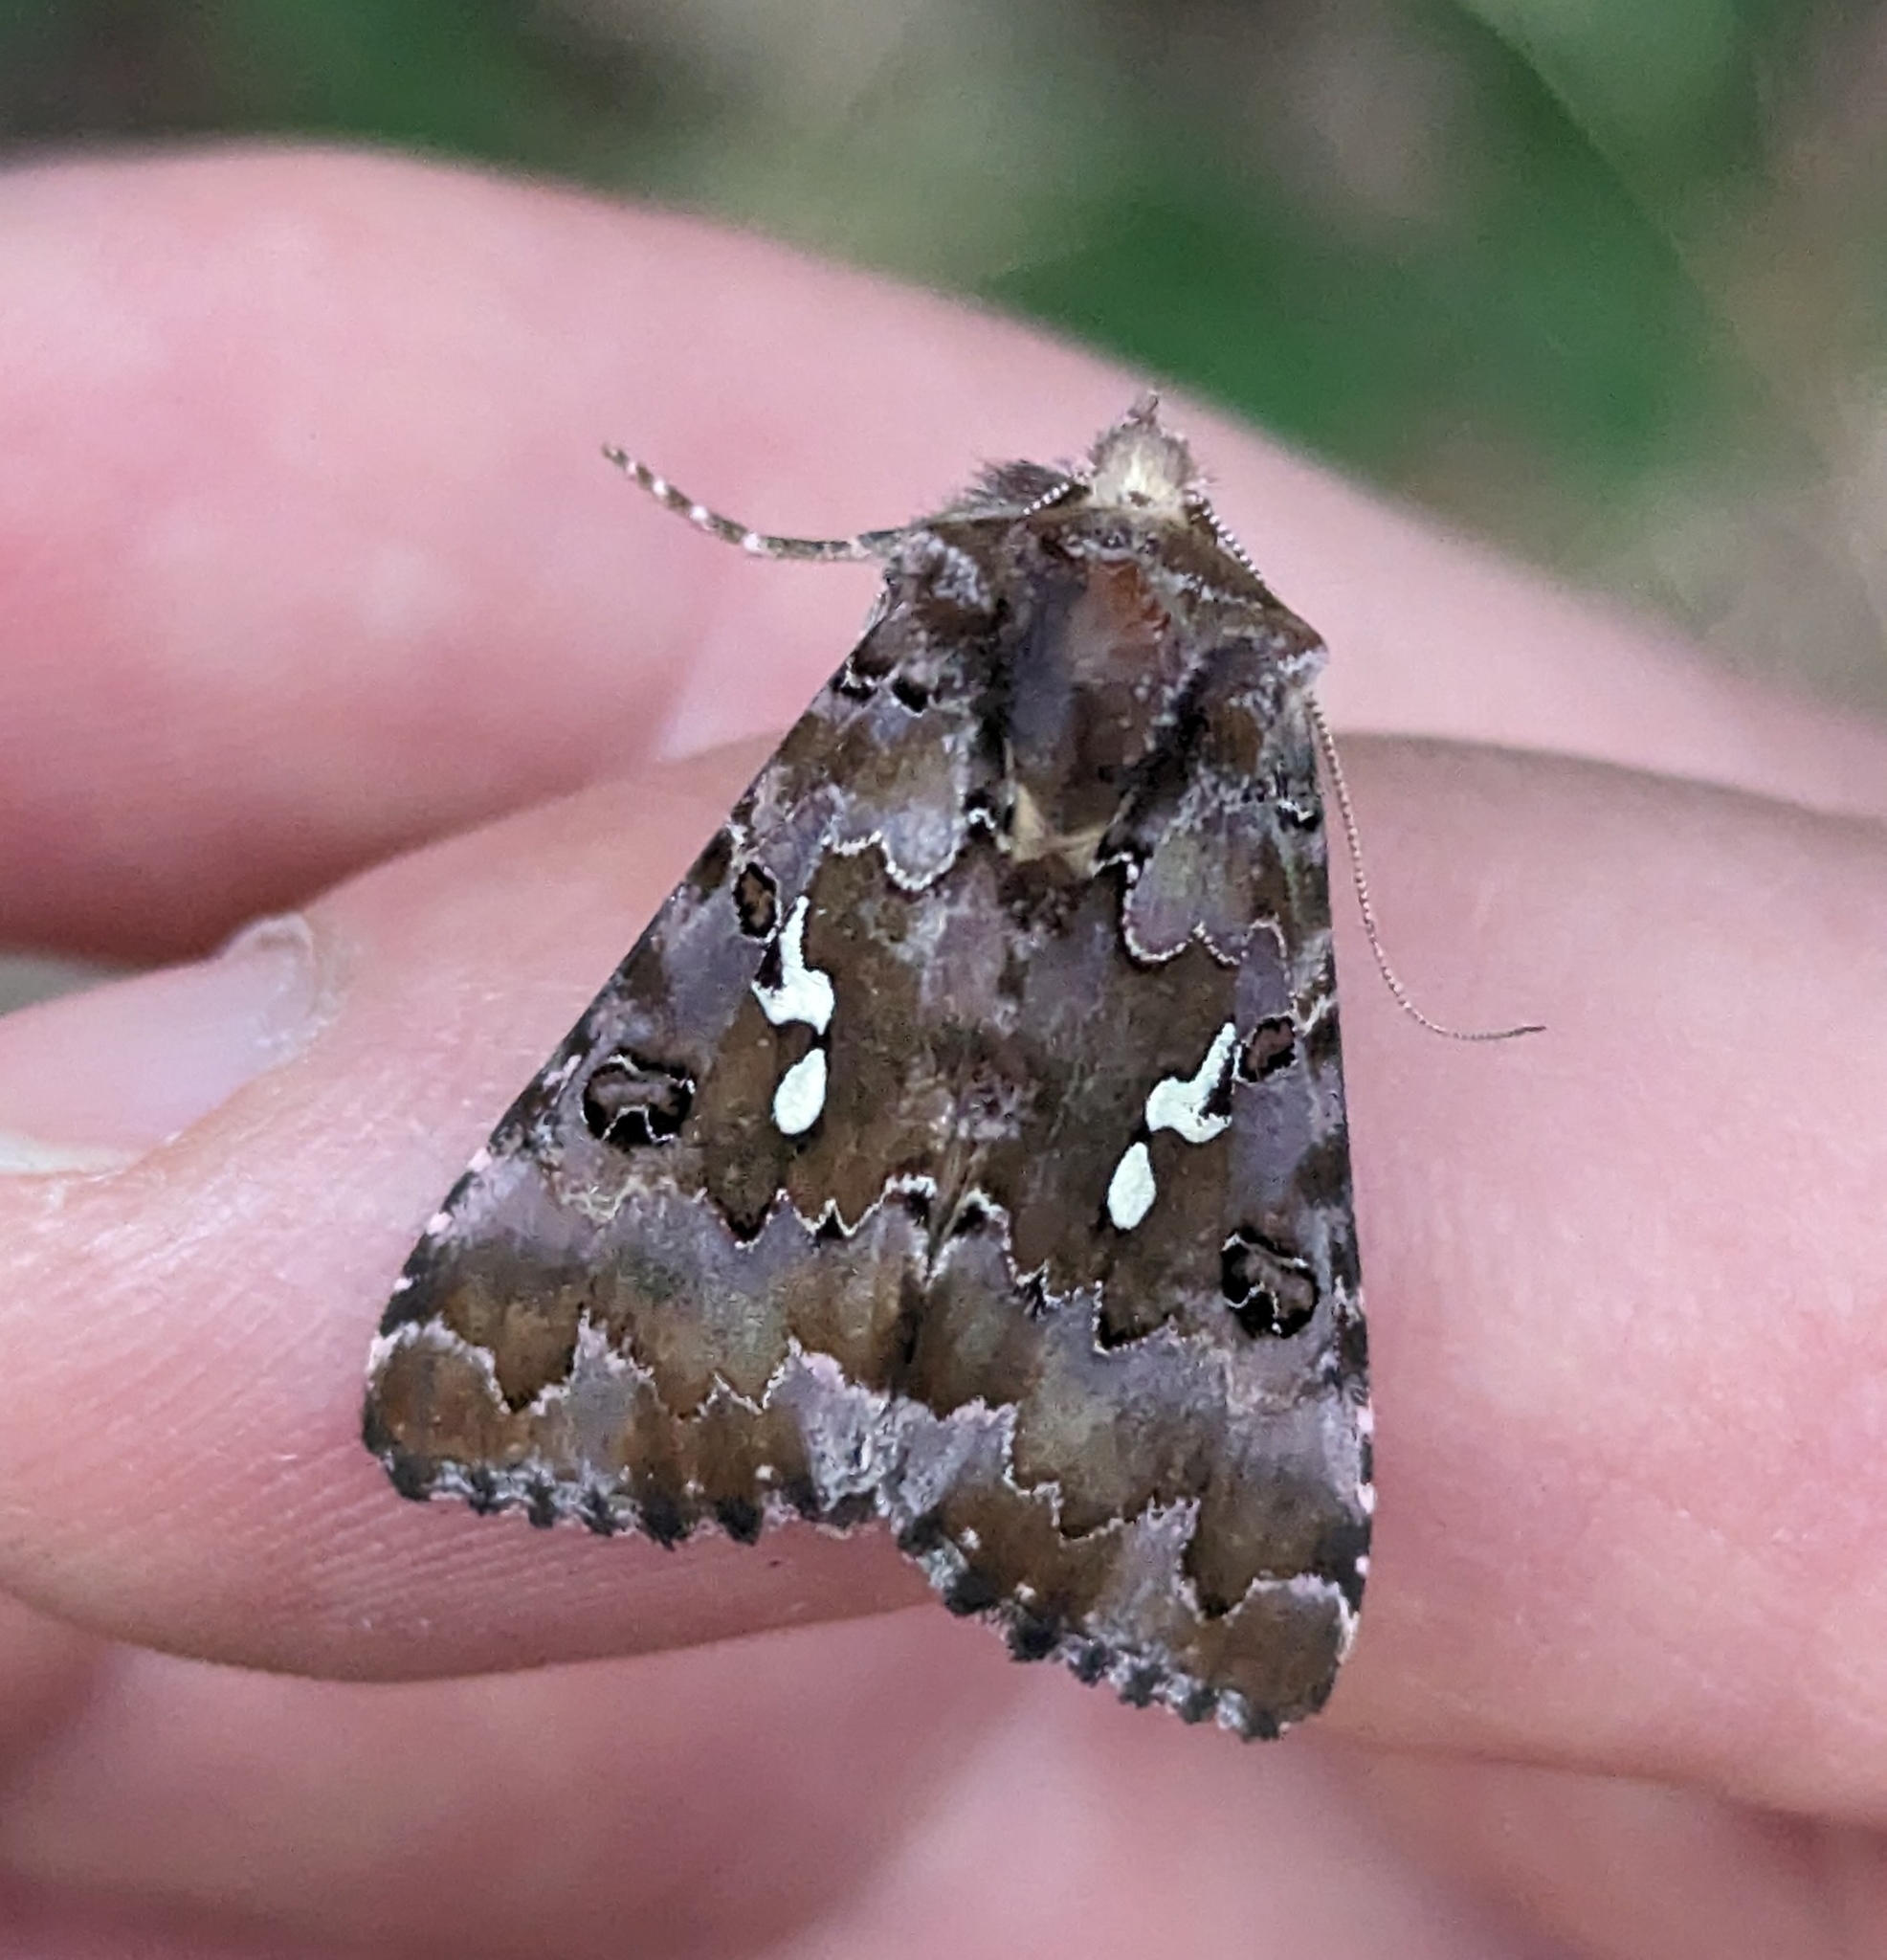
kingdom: Animalia
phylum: Arthropoda
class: Insecta
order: Lepidoptera
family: Noctuidae
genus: Autographa
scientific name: Autographa corusca
